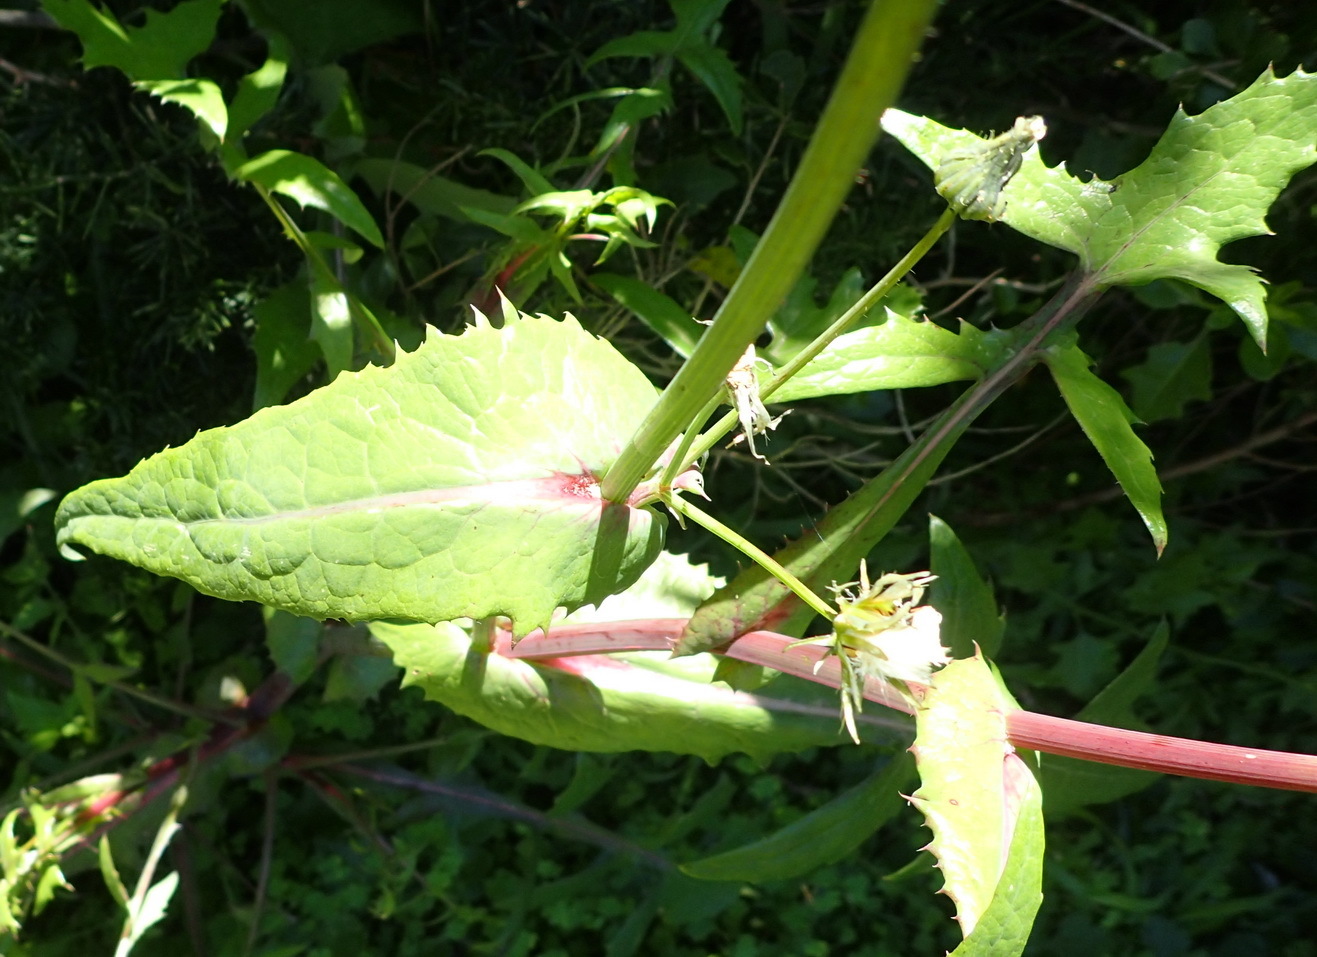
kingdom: Plantae
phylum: Tracheophyta
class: Magnoliopsida
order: Asterales
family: Asteraceae
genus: Sonchus
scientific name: Sonchus oleraceus
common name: Common sowthistle
